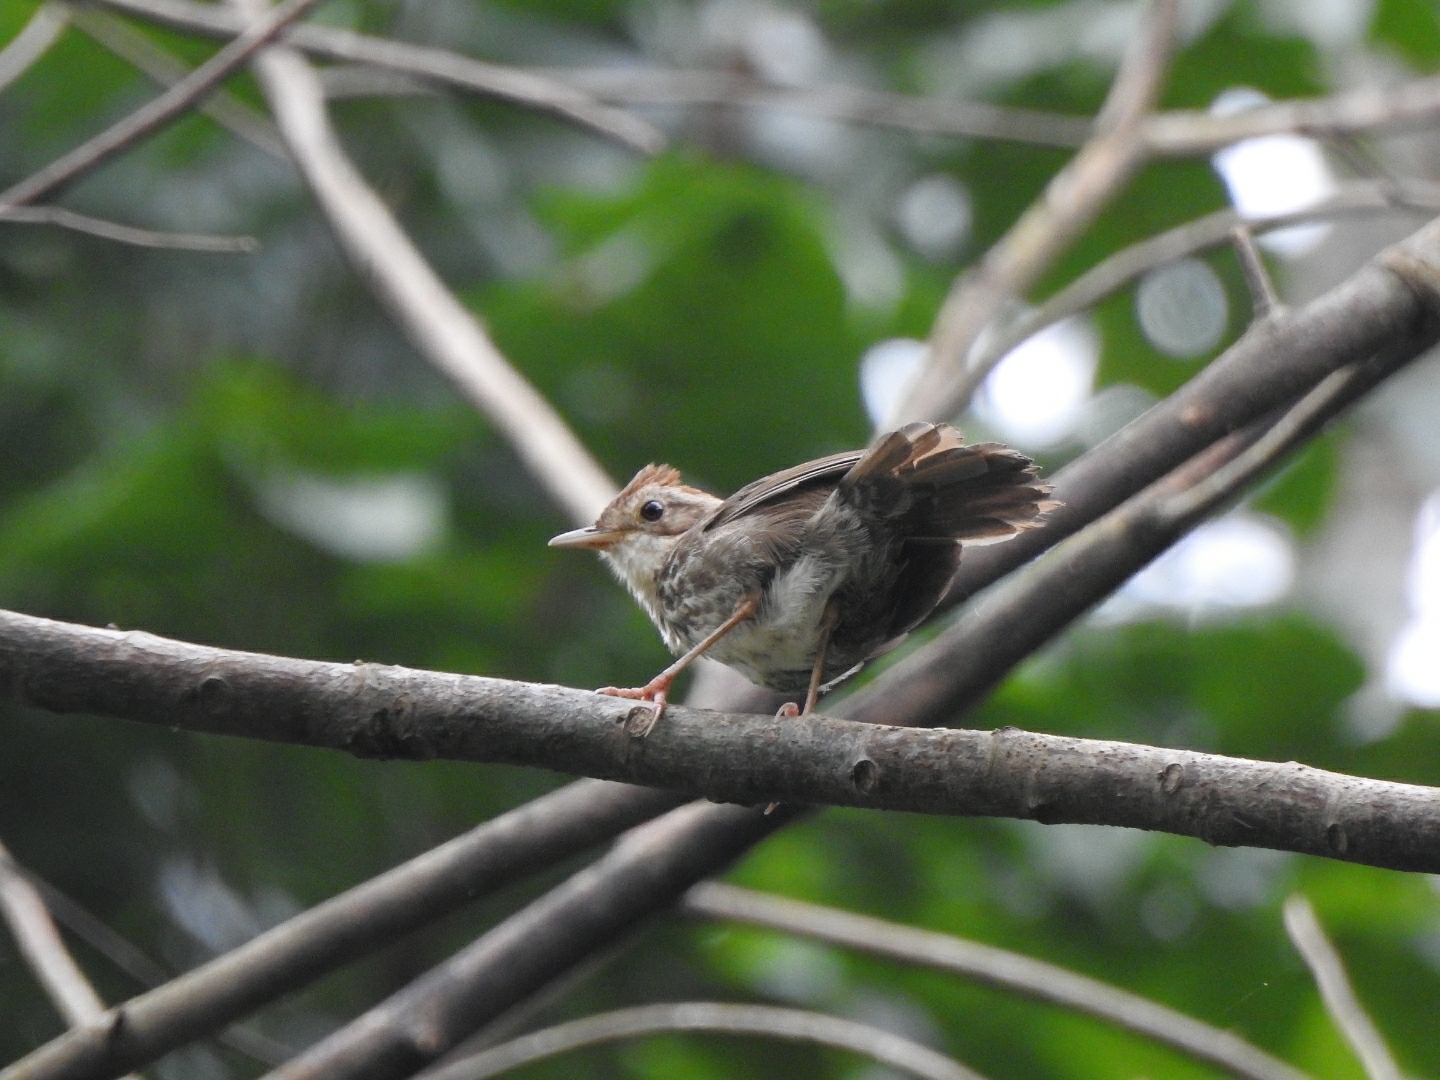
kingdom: Animalia
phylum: Chordata
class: Aves
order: Passeriformes
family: Pellorneidae
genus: Pellorneum
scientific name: Pellorneum ruficeps
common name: Puff-throated babbler
